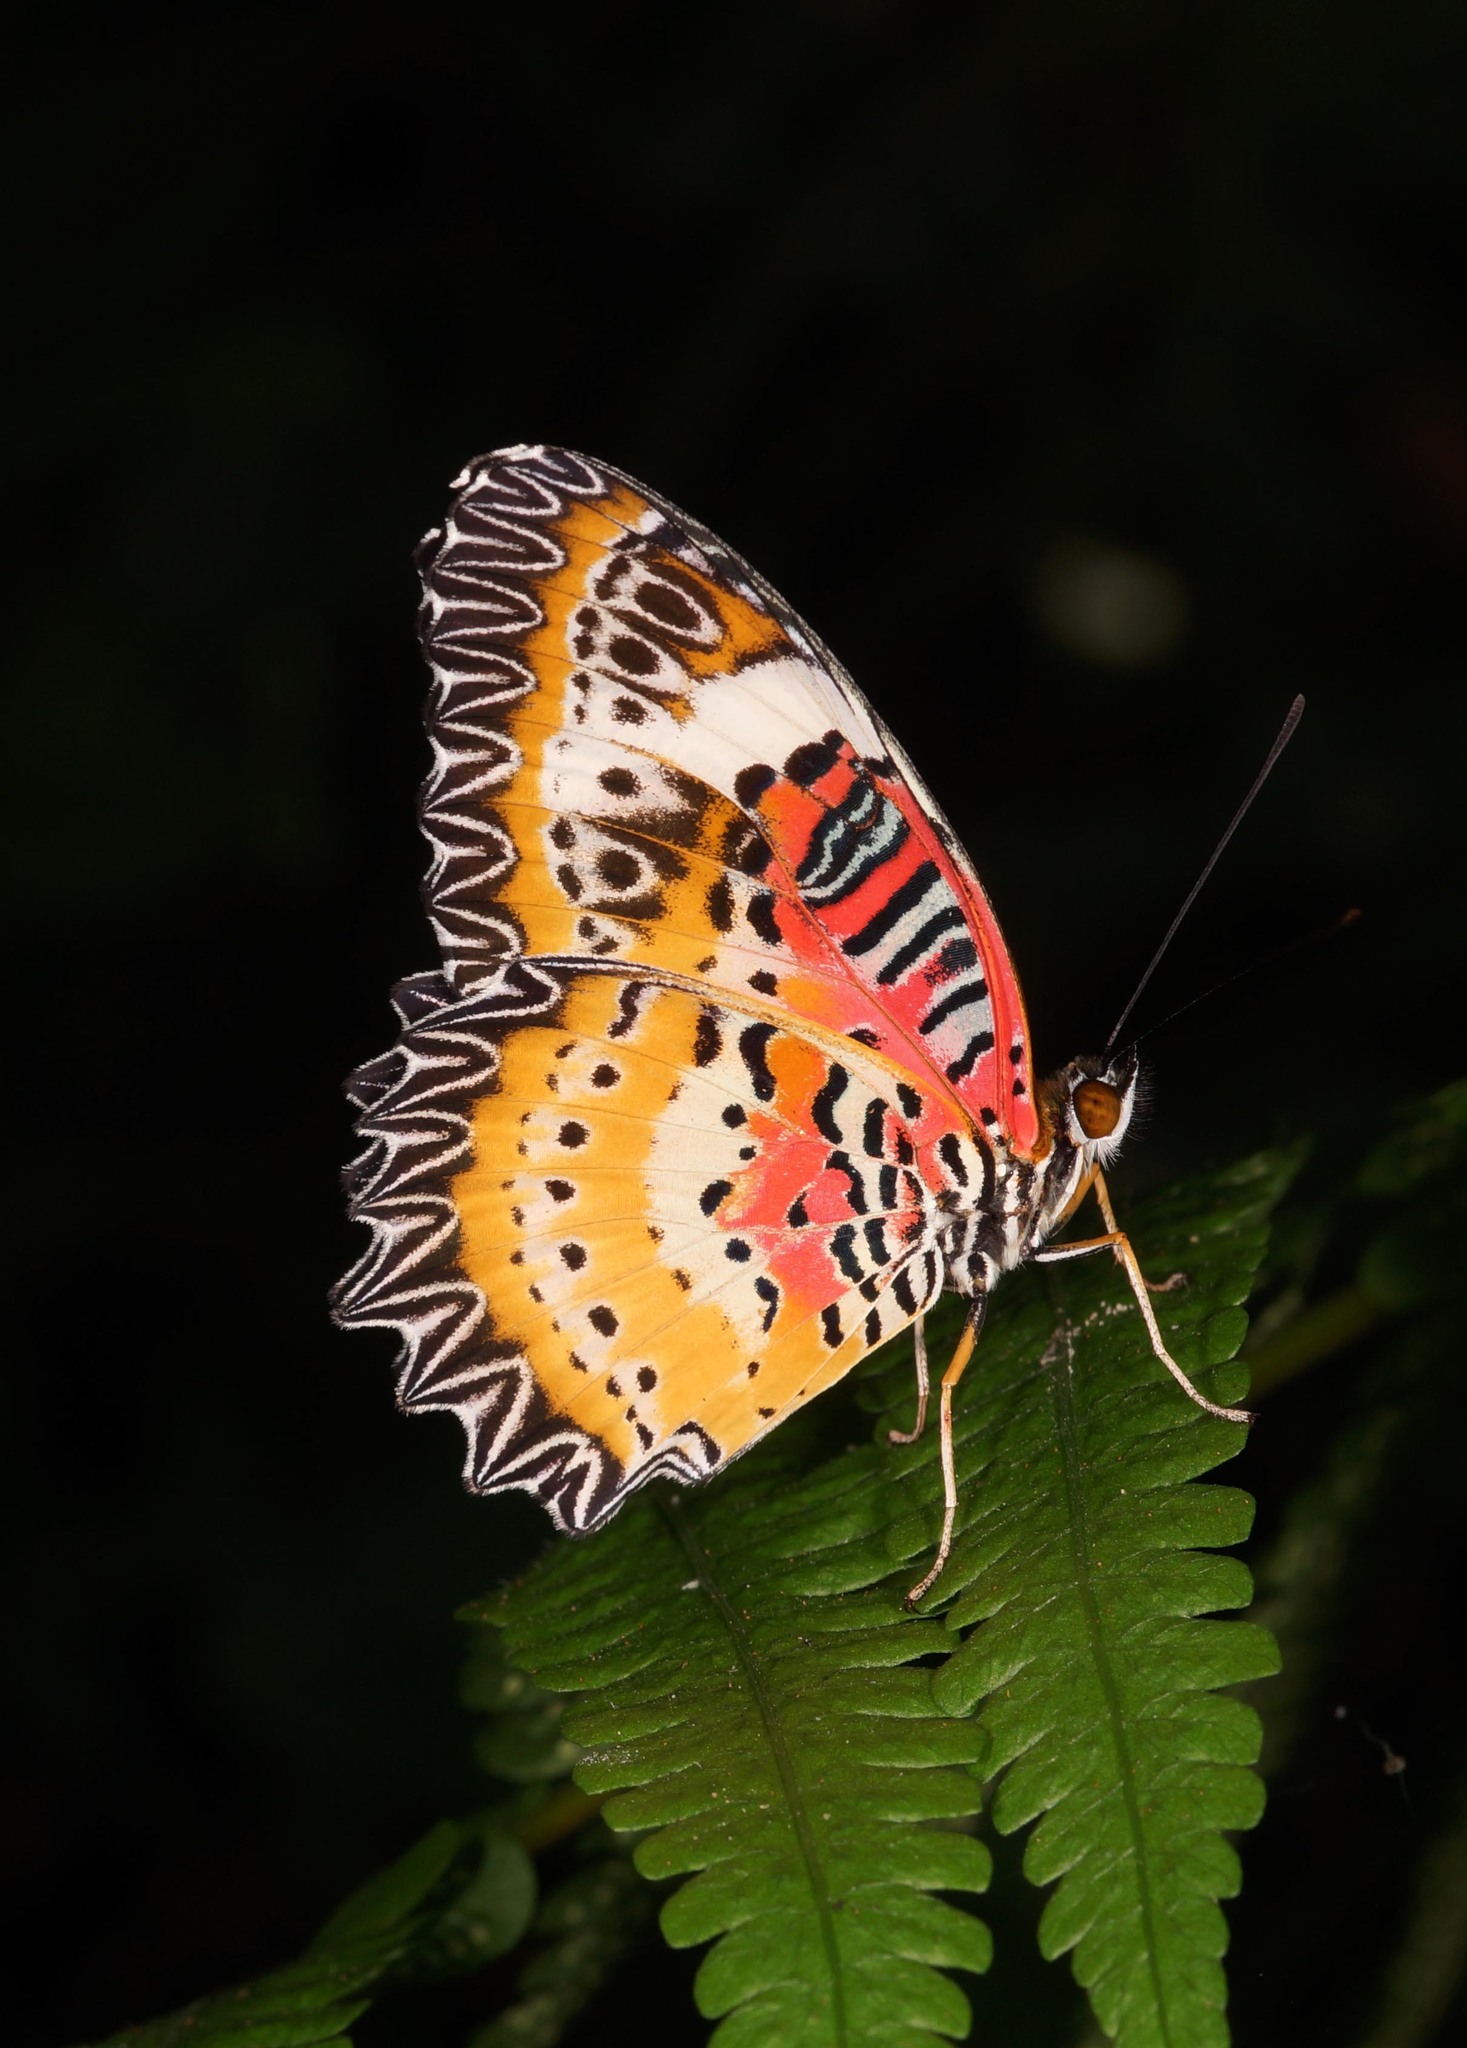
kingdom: Animalia
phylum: Arthropoda
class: Insecta
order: Lepidoptera
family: Nymphalidae
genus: Cethosia
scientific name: Cethosia cyane
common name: Leopard lacewing butterfly
